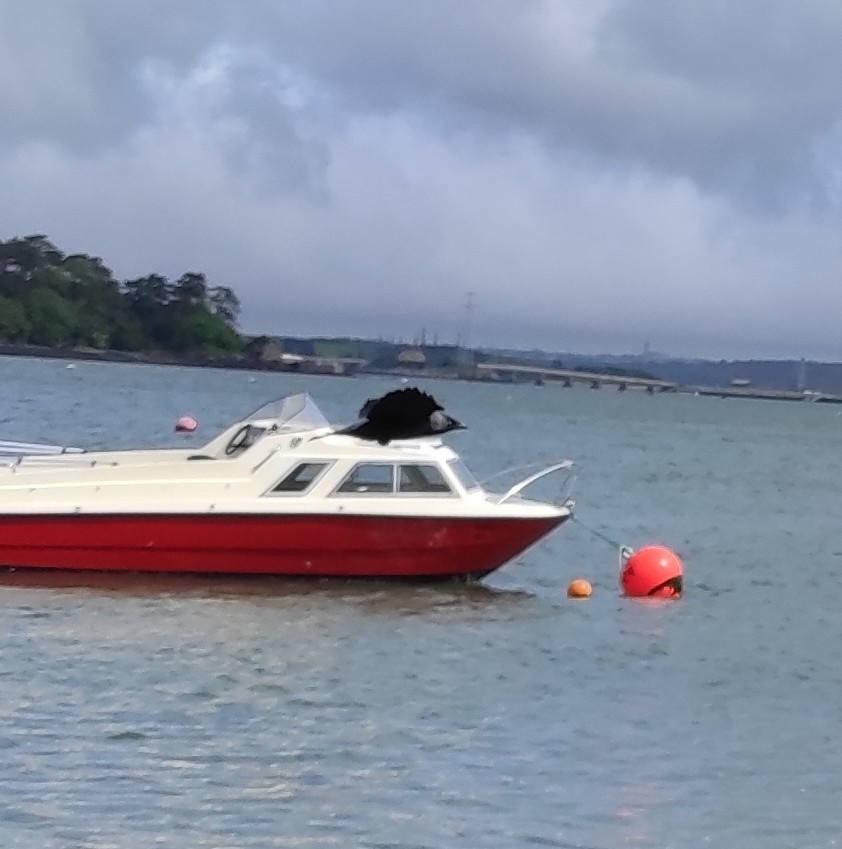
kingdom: Animalia
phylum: Chordata
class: Aves
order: Passeriformes
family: Corvidae
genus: Coloeus
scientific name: Coloeus monedula
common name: Western jackdaw
